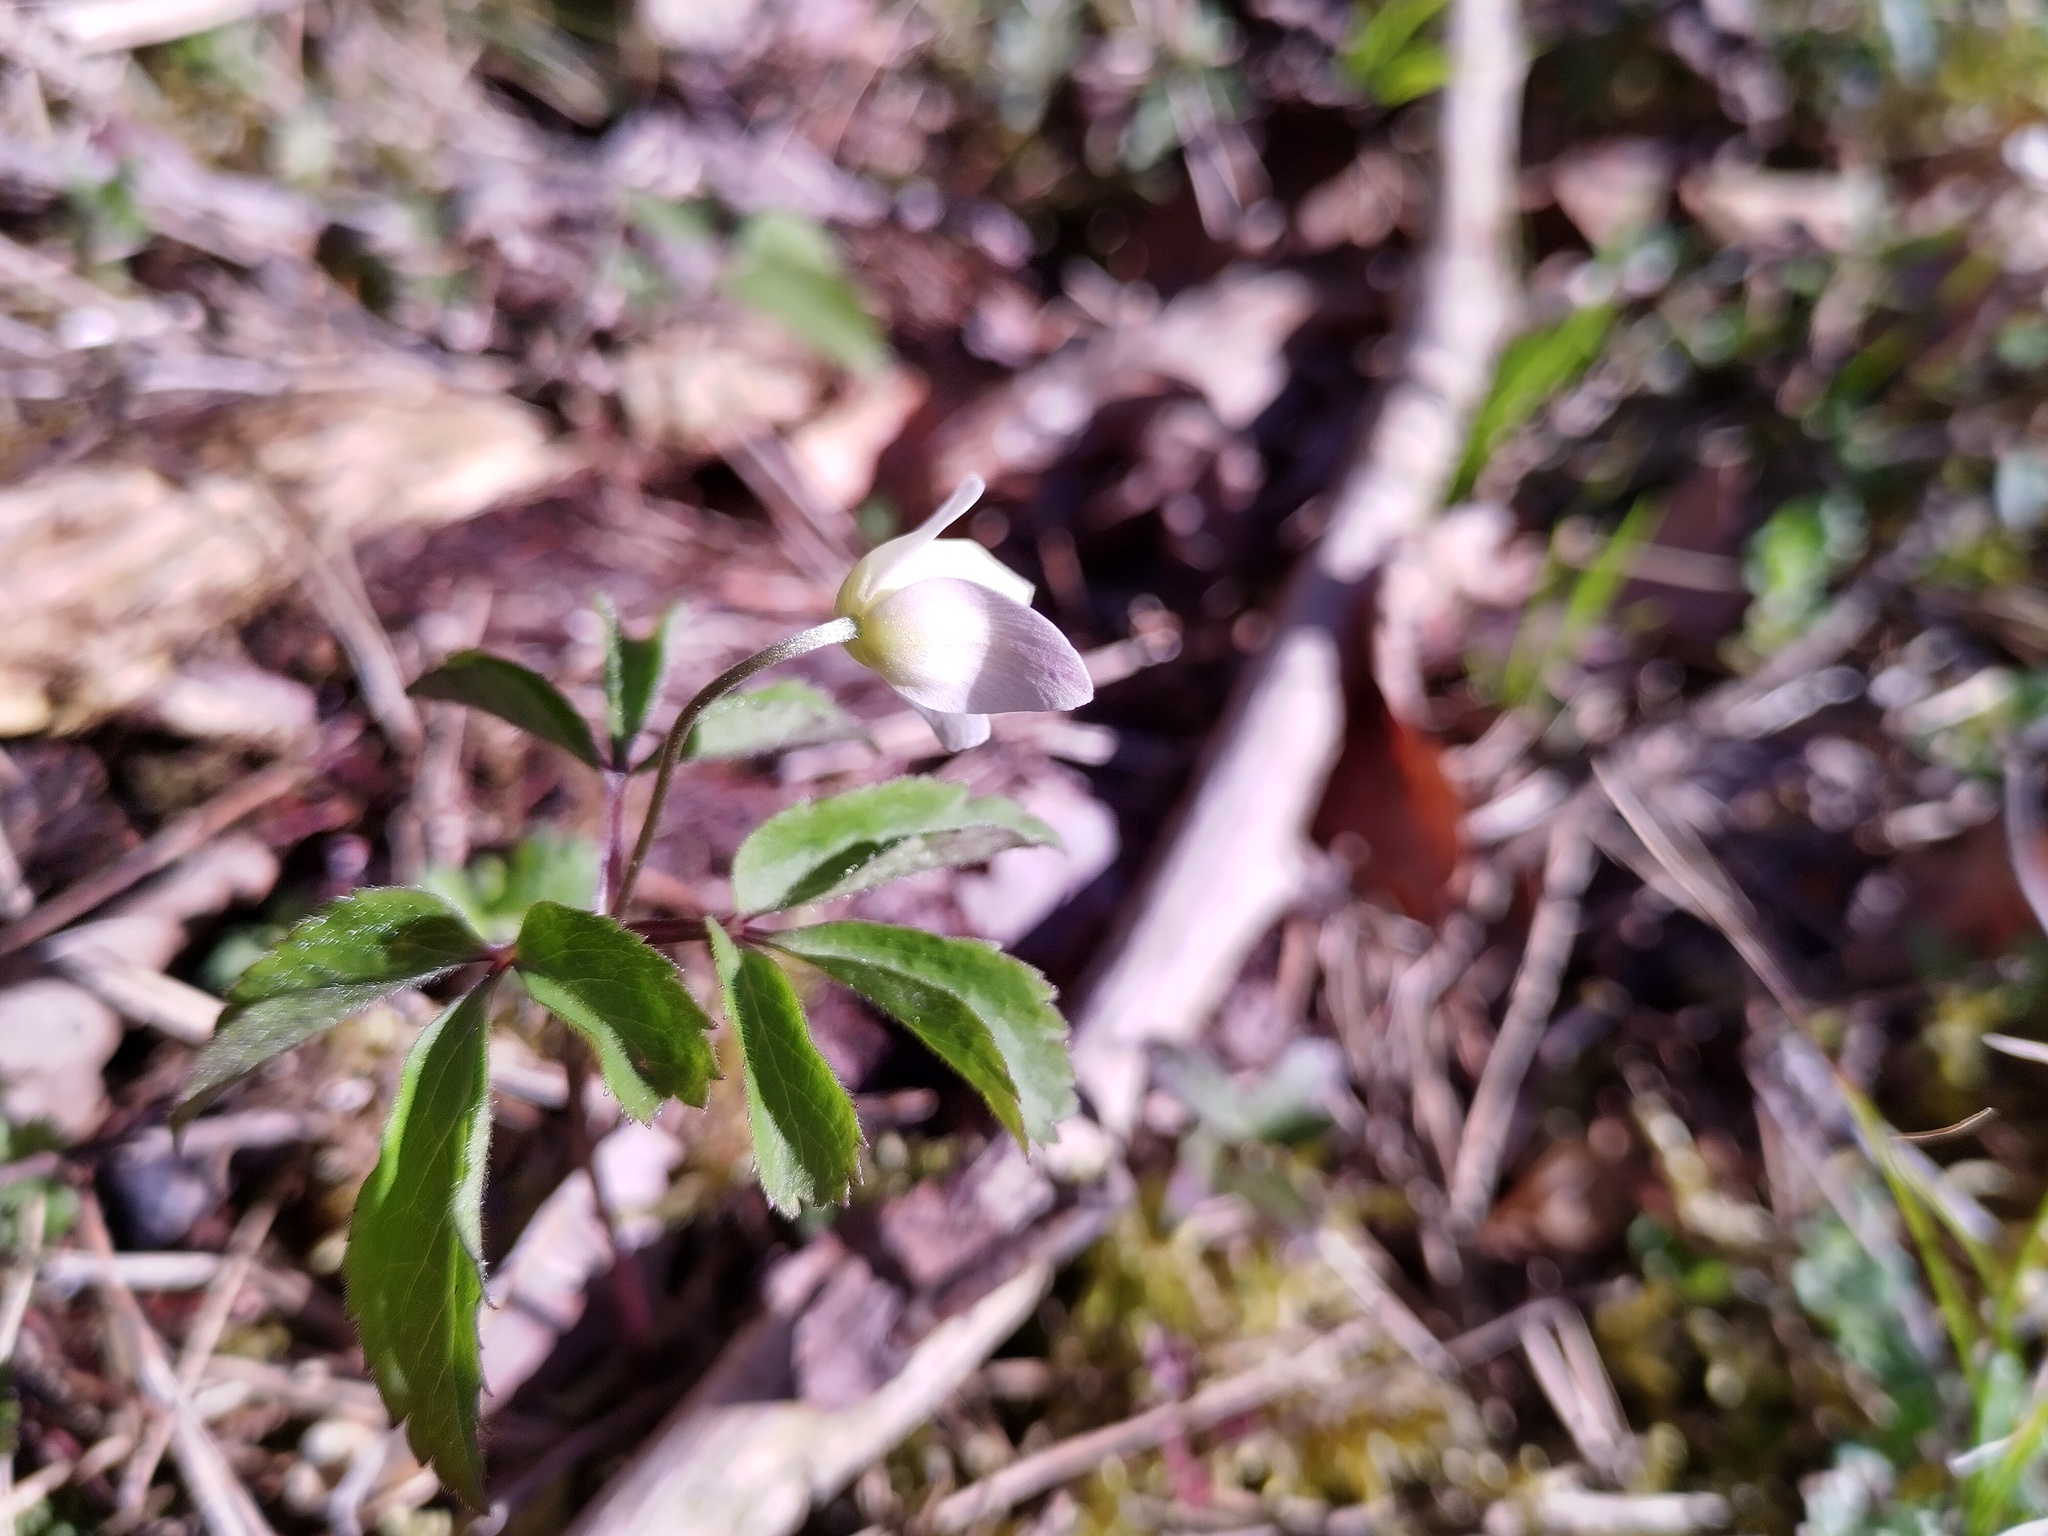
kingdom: Plantae
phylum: Tracheophyta
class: Magnoliopsida
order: Ranunculales
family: Ranunculaceae
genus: Anemone
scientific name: Anemone trifolia
